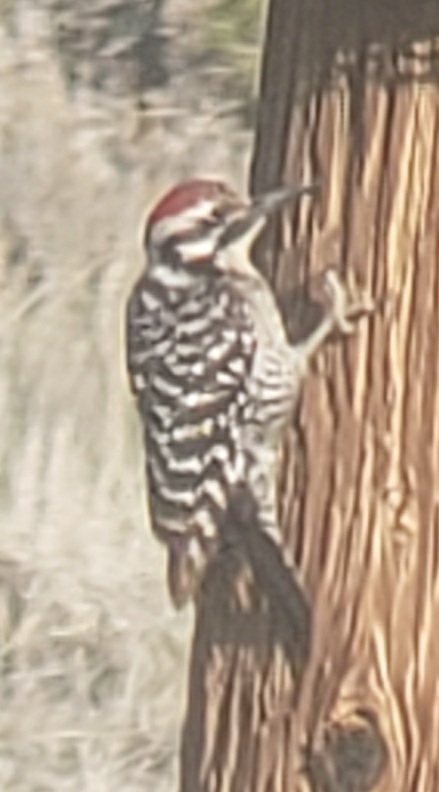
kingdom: Animalia
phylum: Chordata
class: Aves
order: Piciformes
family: Picidae
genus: Dryobates
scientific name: Dryobates scalaris
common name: Ladder-backed woodpecker
